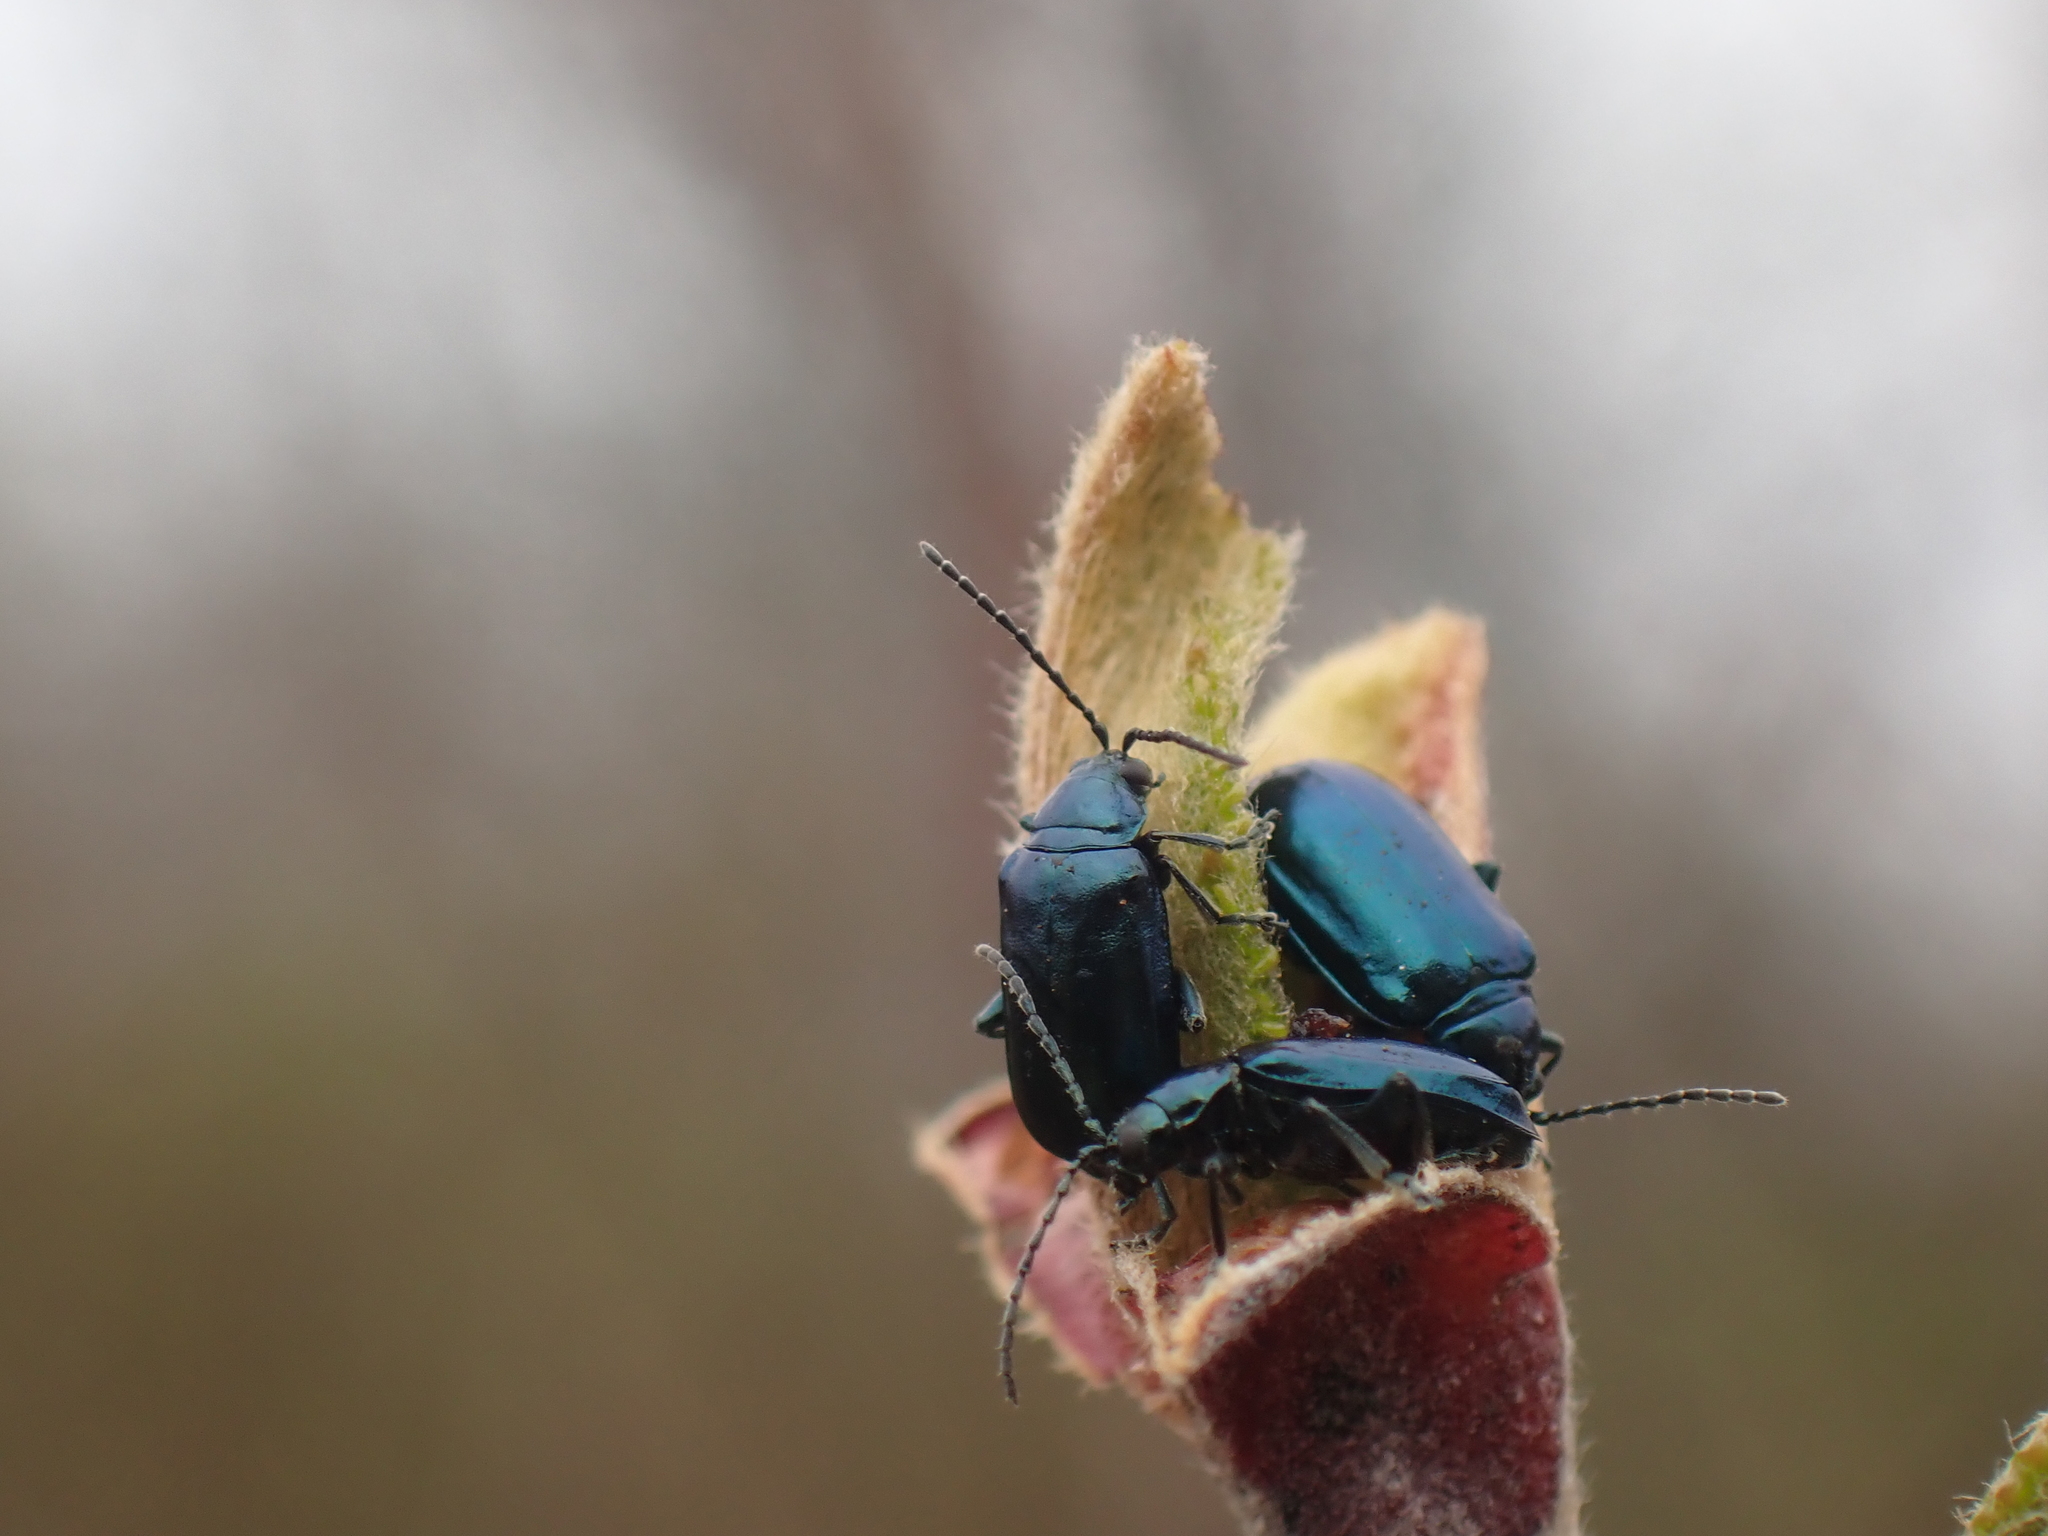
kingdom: Animalia
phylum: Arthropoda
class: Insecta
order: Coleoptera
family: Chrysomelidae
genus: Altica
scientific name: Altica ambiens
